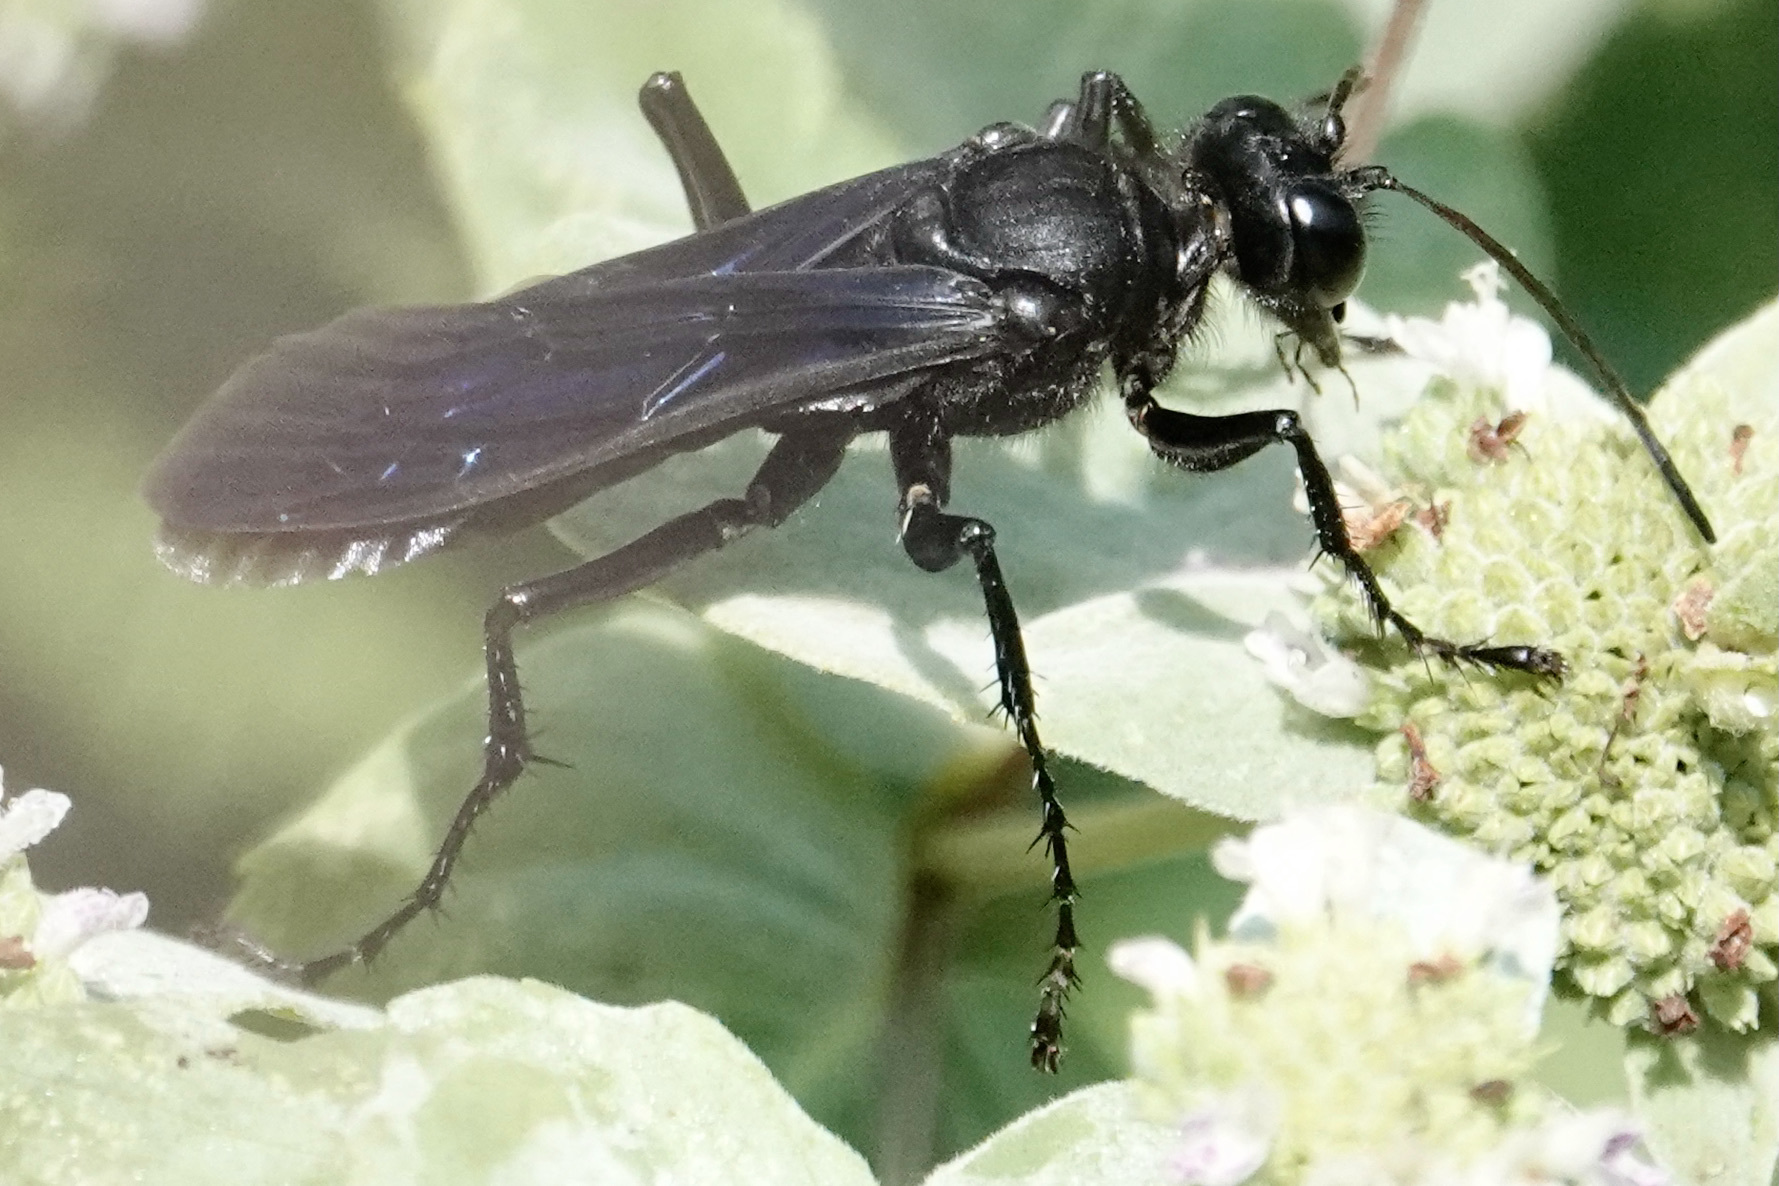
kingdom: Animalia
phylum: Arthropoda
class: Insecta
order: Hymenoptera
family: Sphecidae
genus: Sphex
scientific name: Sphex pensylvanicus
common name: Great black digger wasp
